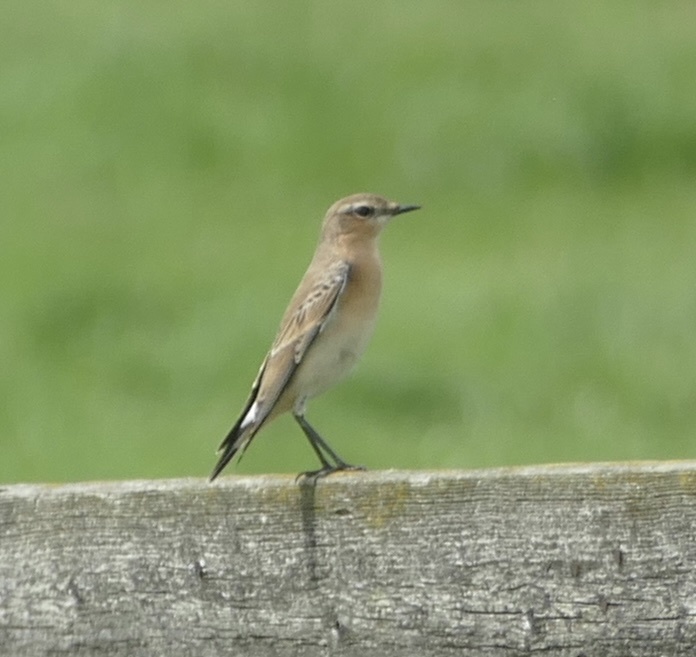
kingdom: Animalia
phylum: Chordata
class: Aves
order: Passeriformes
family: Muscicapidae
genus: Oenanthe
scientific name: Oenanthe oenanthe
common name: Northern wheatear
